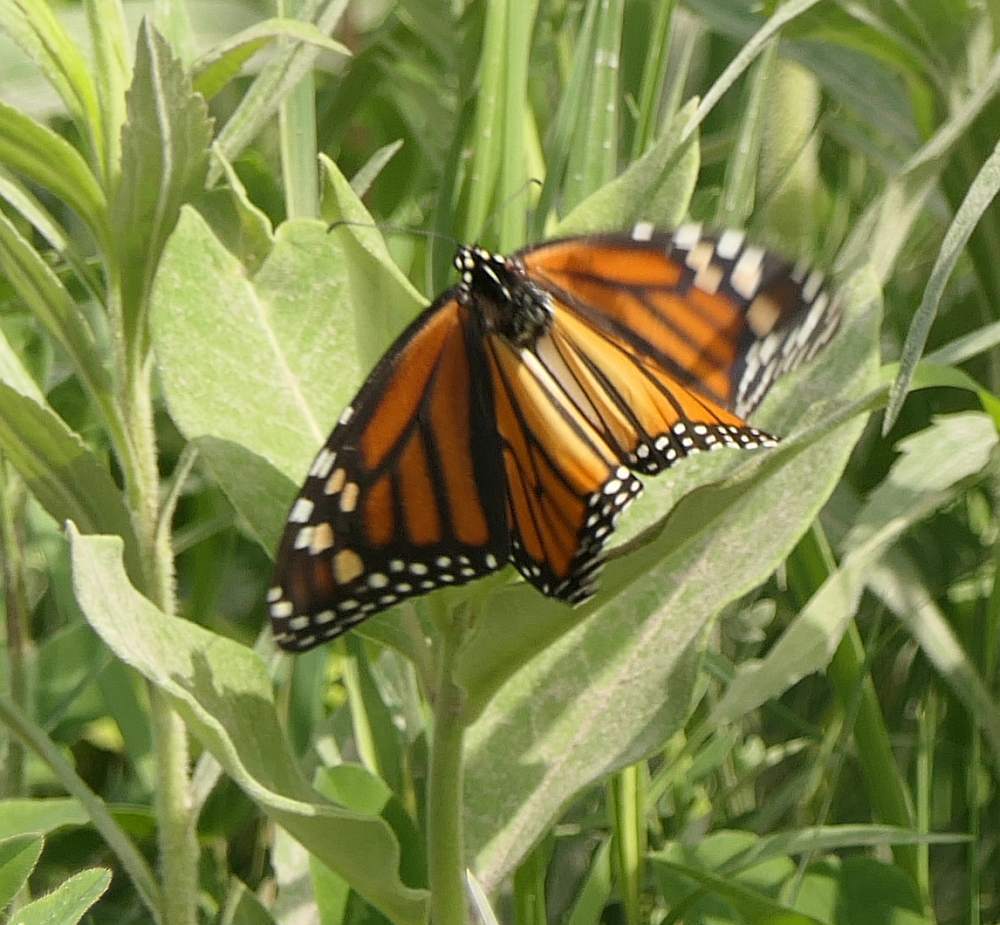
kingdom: Animalia
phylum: Arthropoda
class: Insecta
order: Lepidoptera
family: Nymphalidae
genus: Danaus
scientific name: Danaus plexippus
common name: Monarch
